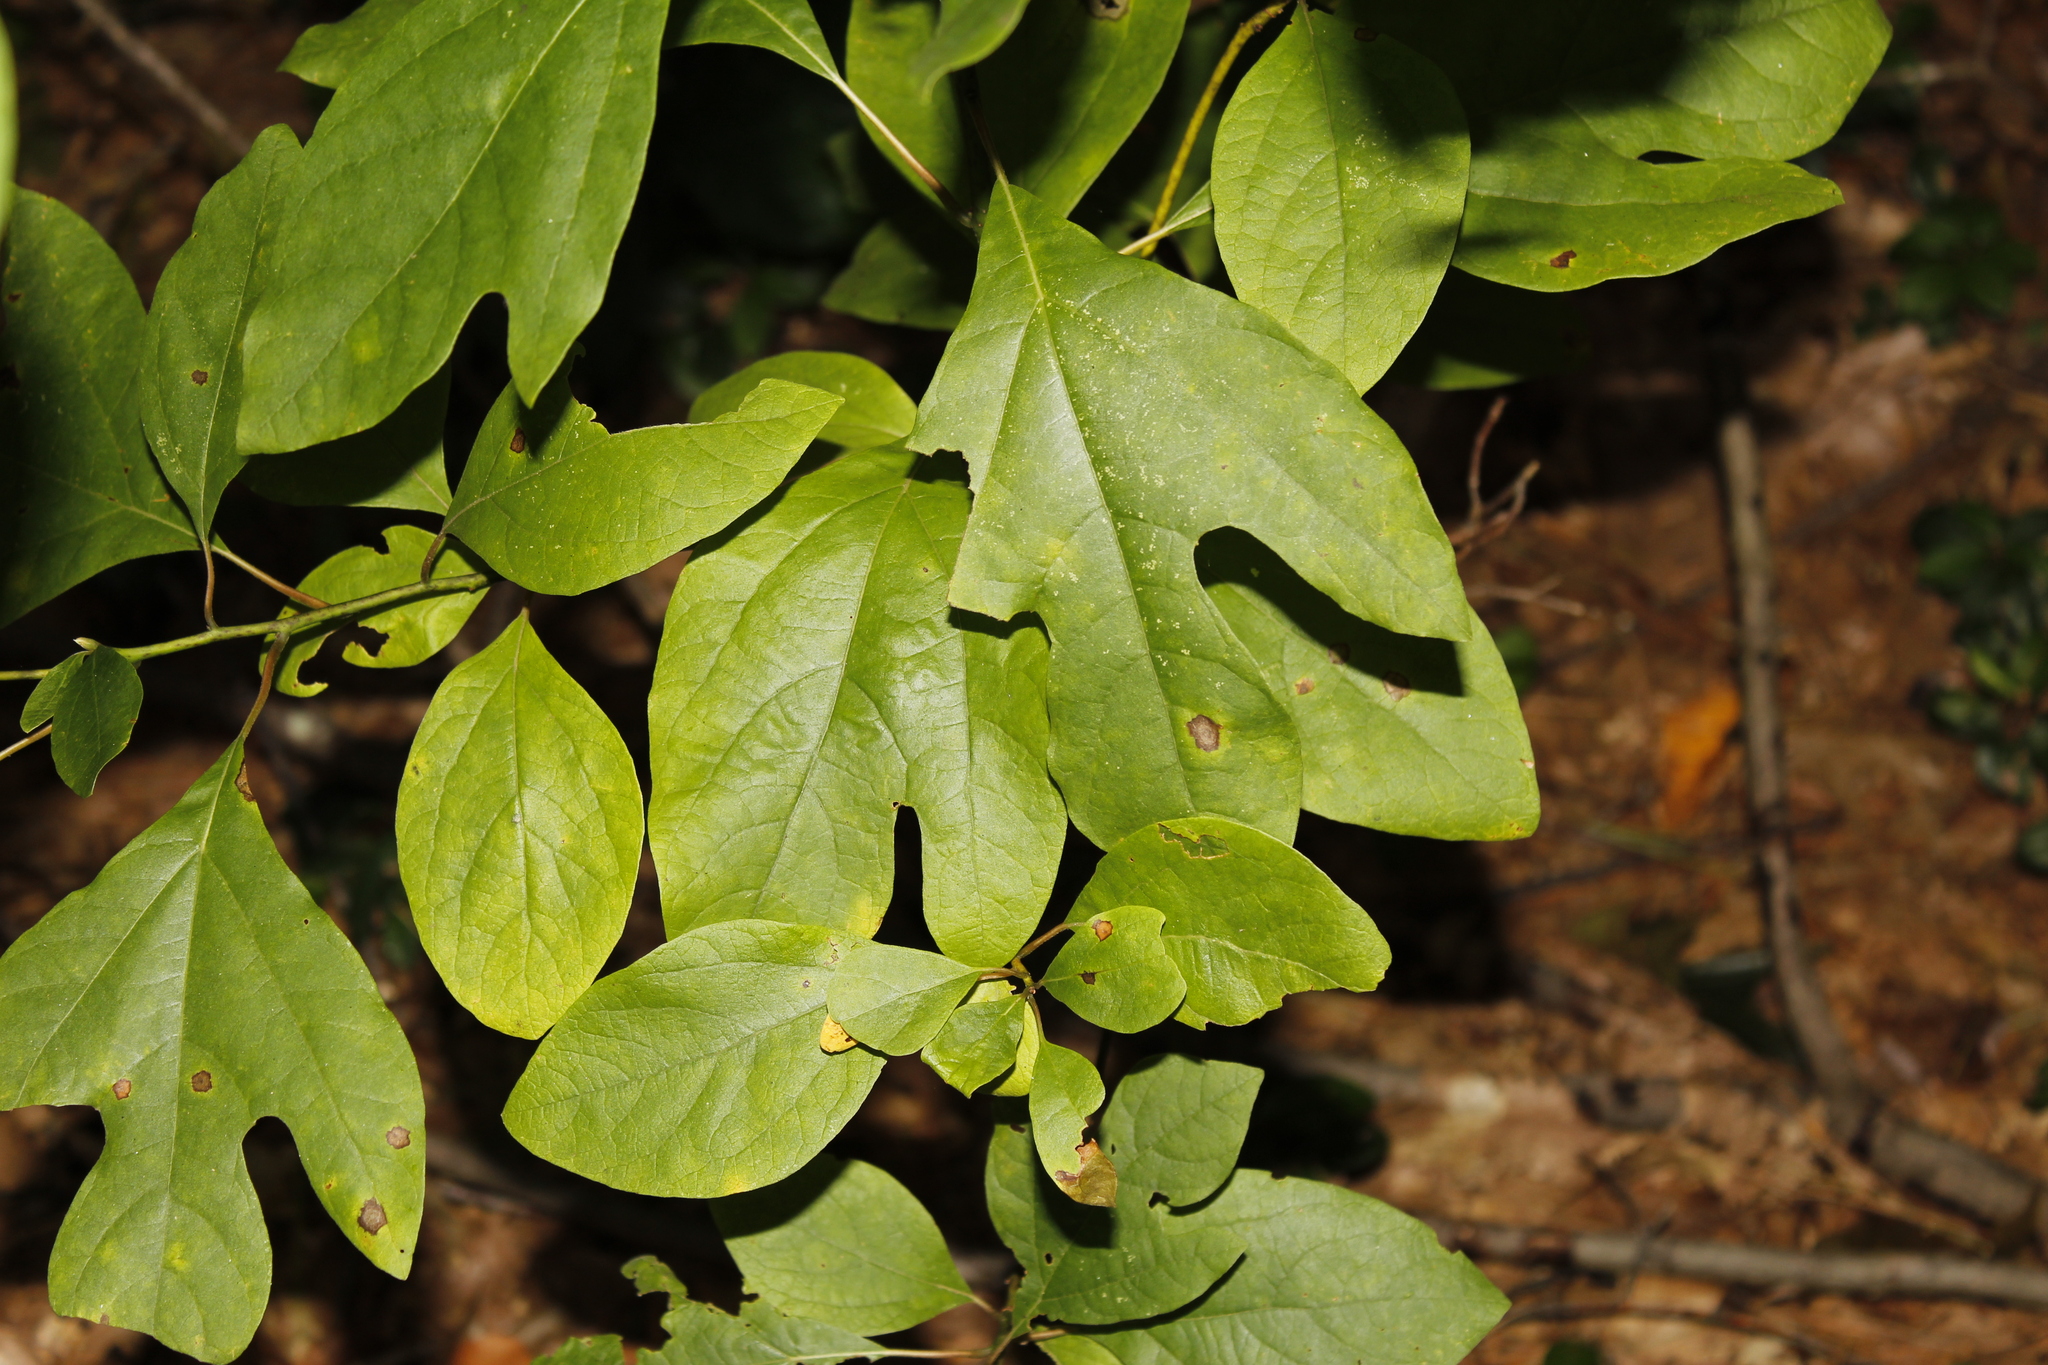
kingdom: Plantae
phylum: Tracheophyta
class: Magnoliopsida
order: Laurales
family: Lauraceae
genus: Sassafras
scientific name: Sassafras albidum
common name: Sassafras
